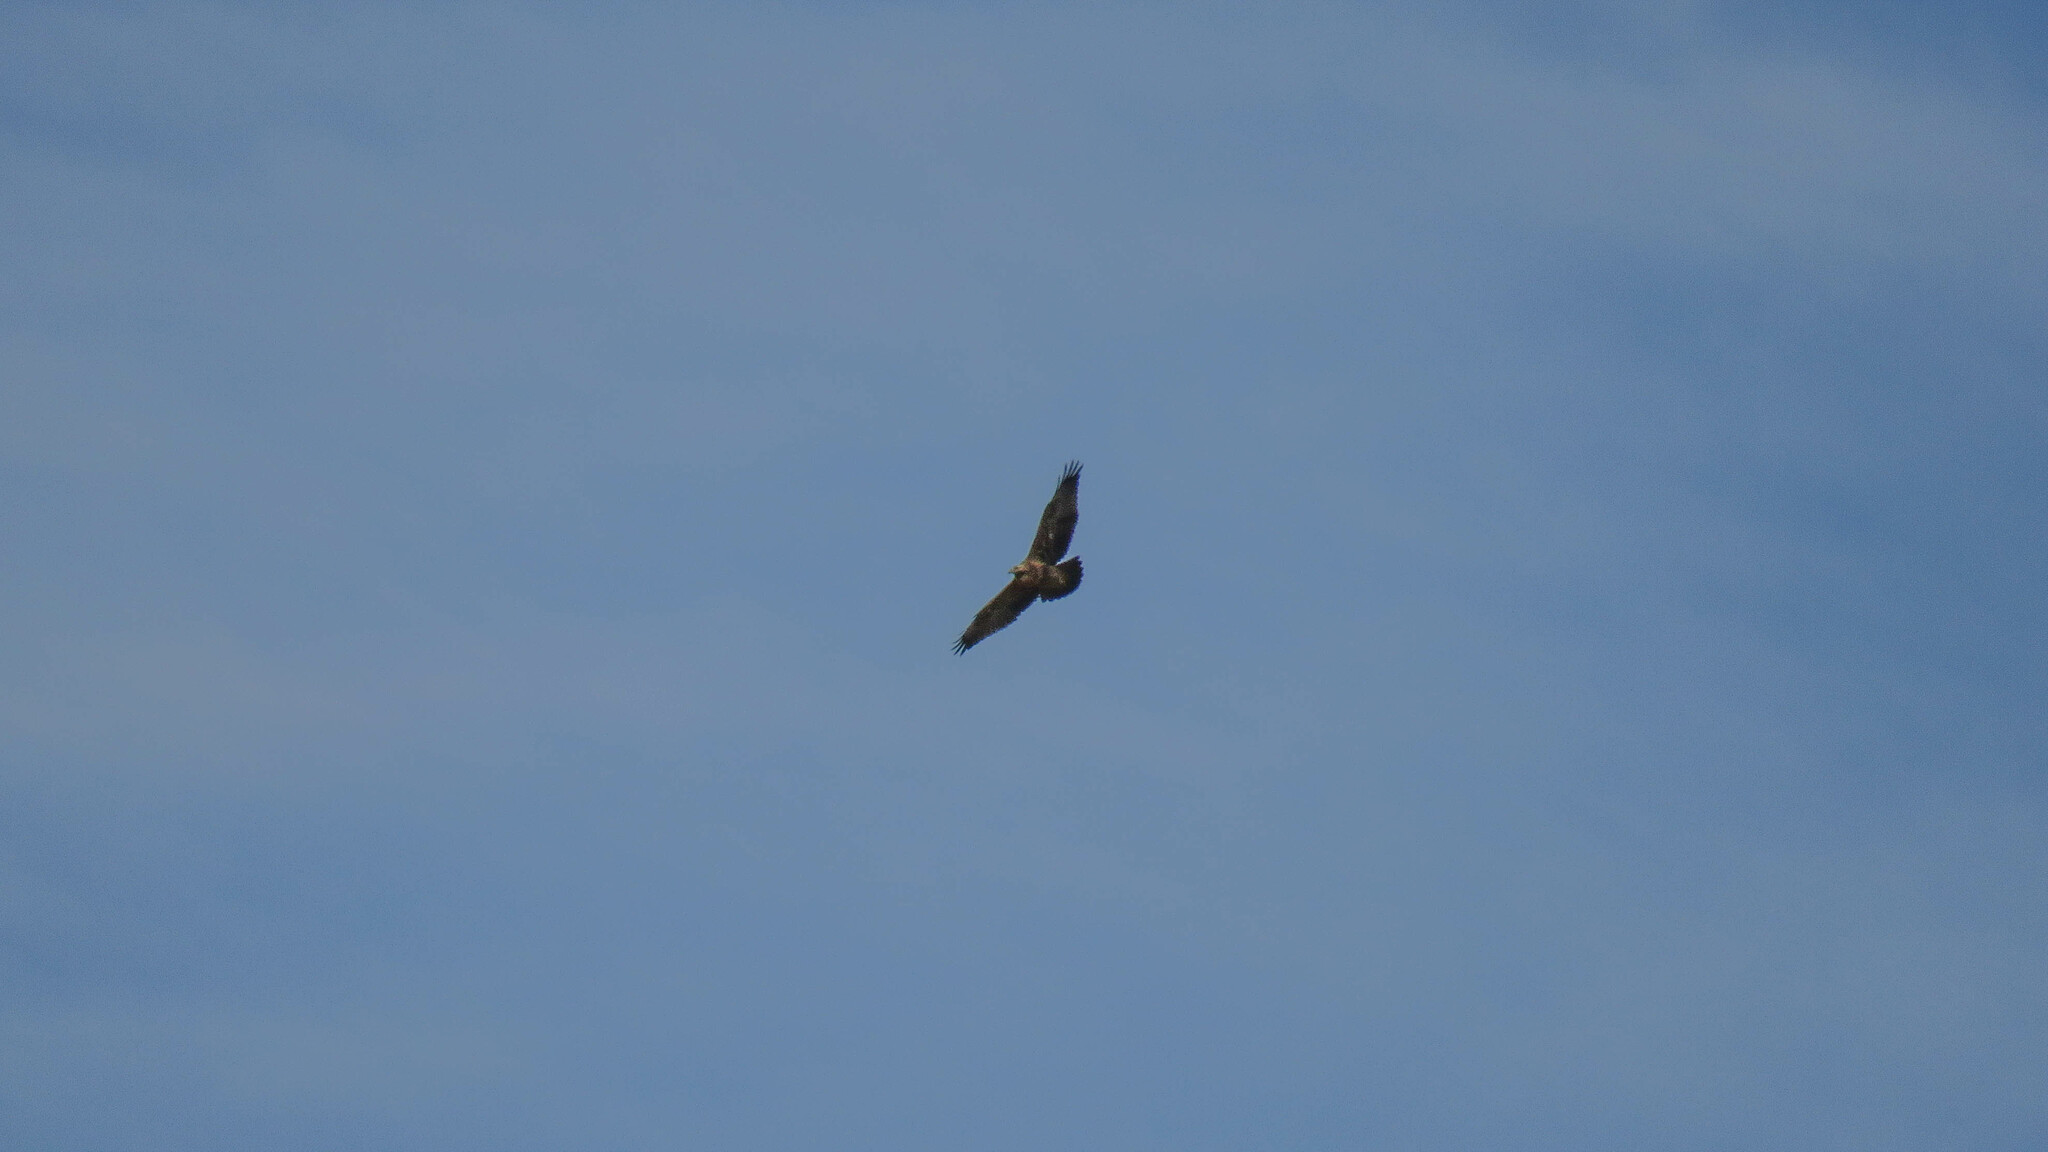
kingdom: Animalia
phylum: Chordata
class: Aves
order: Accipitriformes
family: Accipitridae
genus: Geranoaetus
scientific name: Geranoaetus melanoleucus
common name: Black-chested buzzard-eagle
